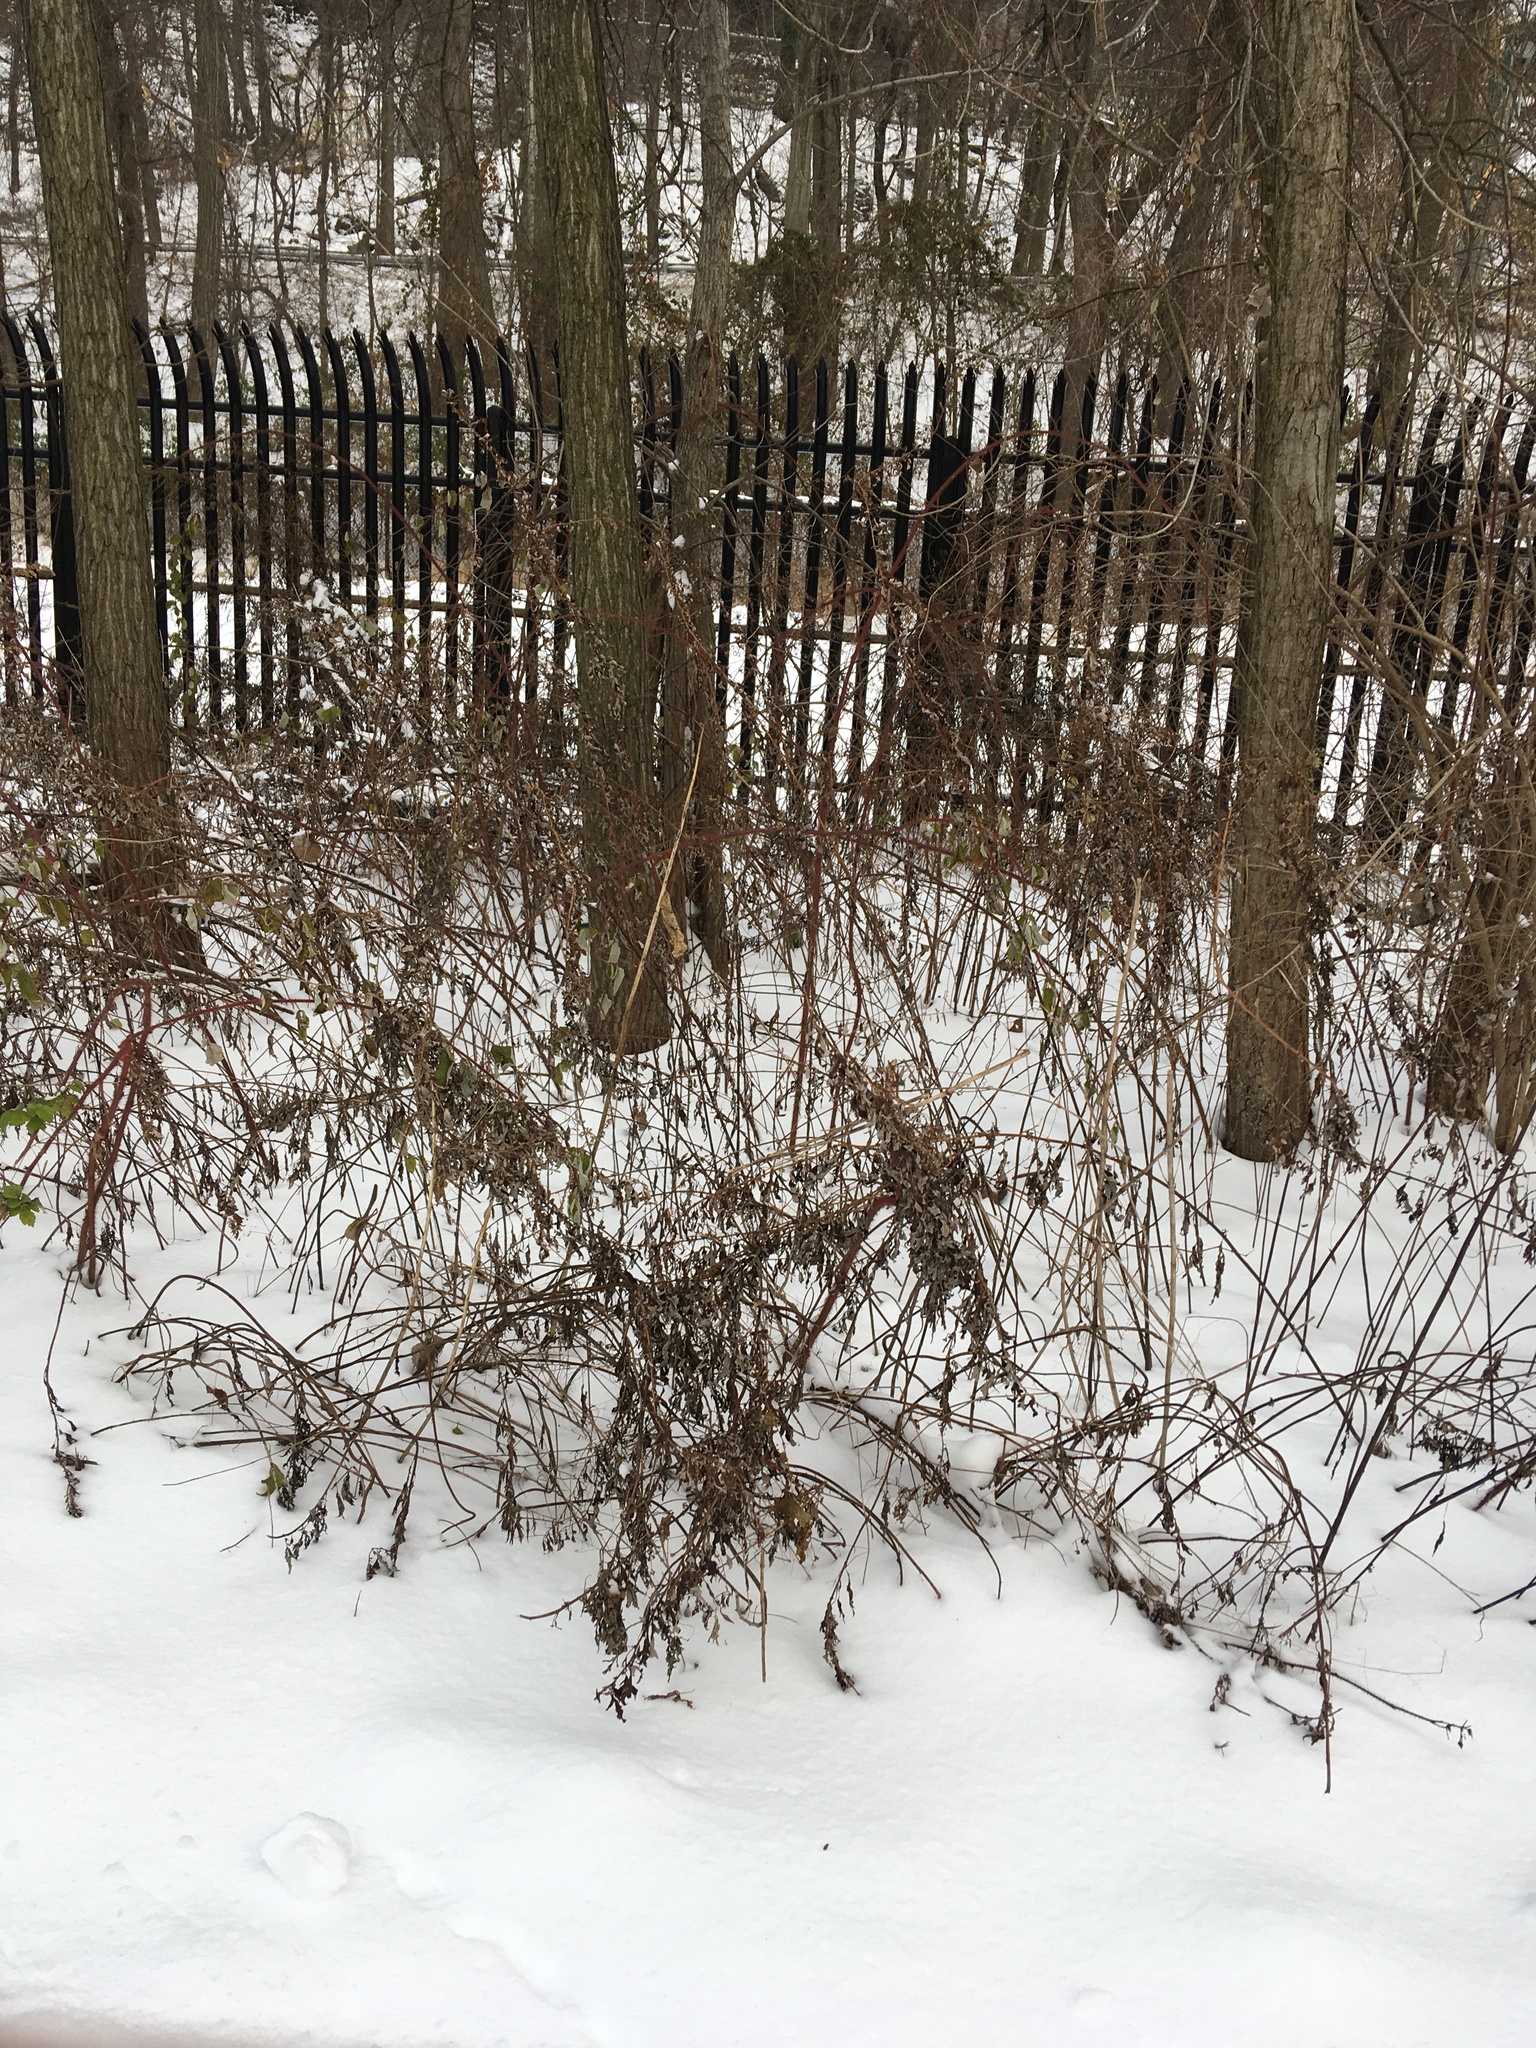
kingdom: Plantae
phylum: Tracheophyta
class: Magnoliopsida
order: Asterales
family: Asteraceae
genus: Artemisia
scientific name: Artemisia vulgaris
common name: Mugwort
